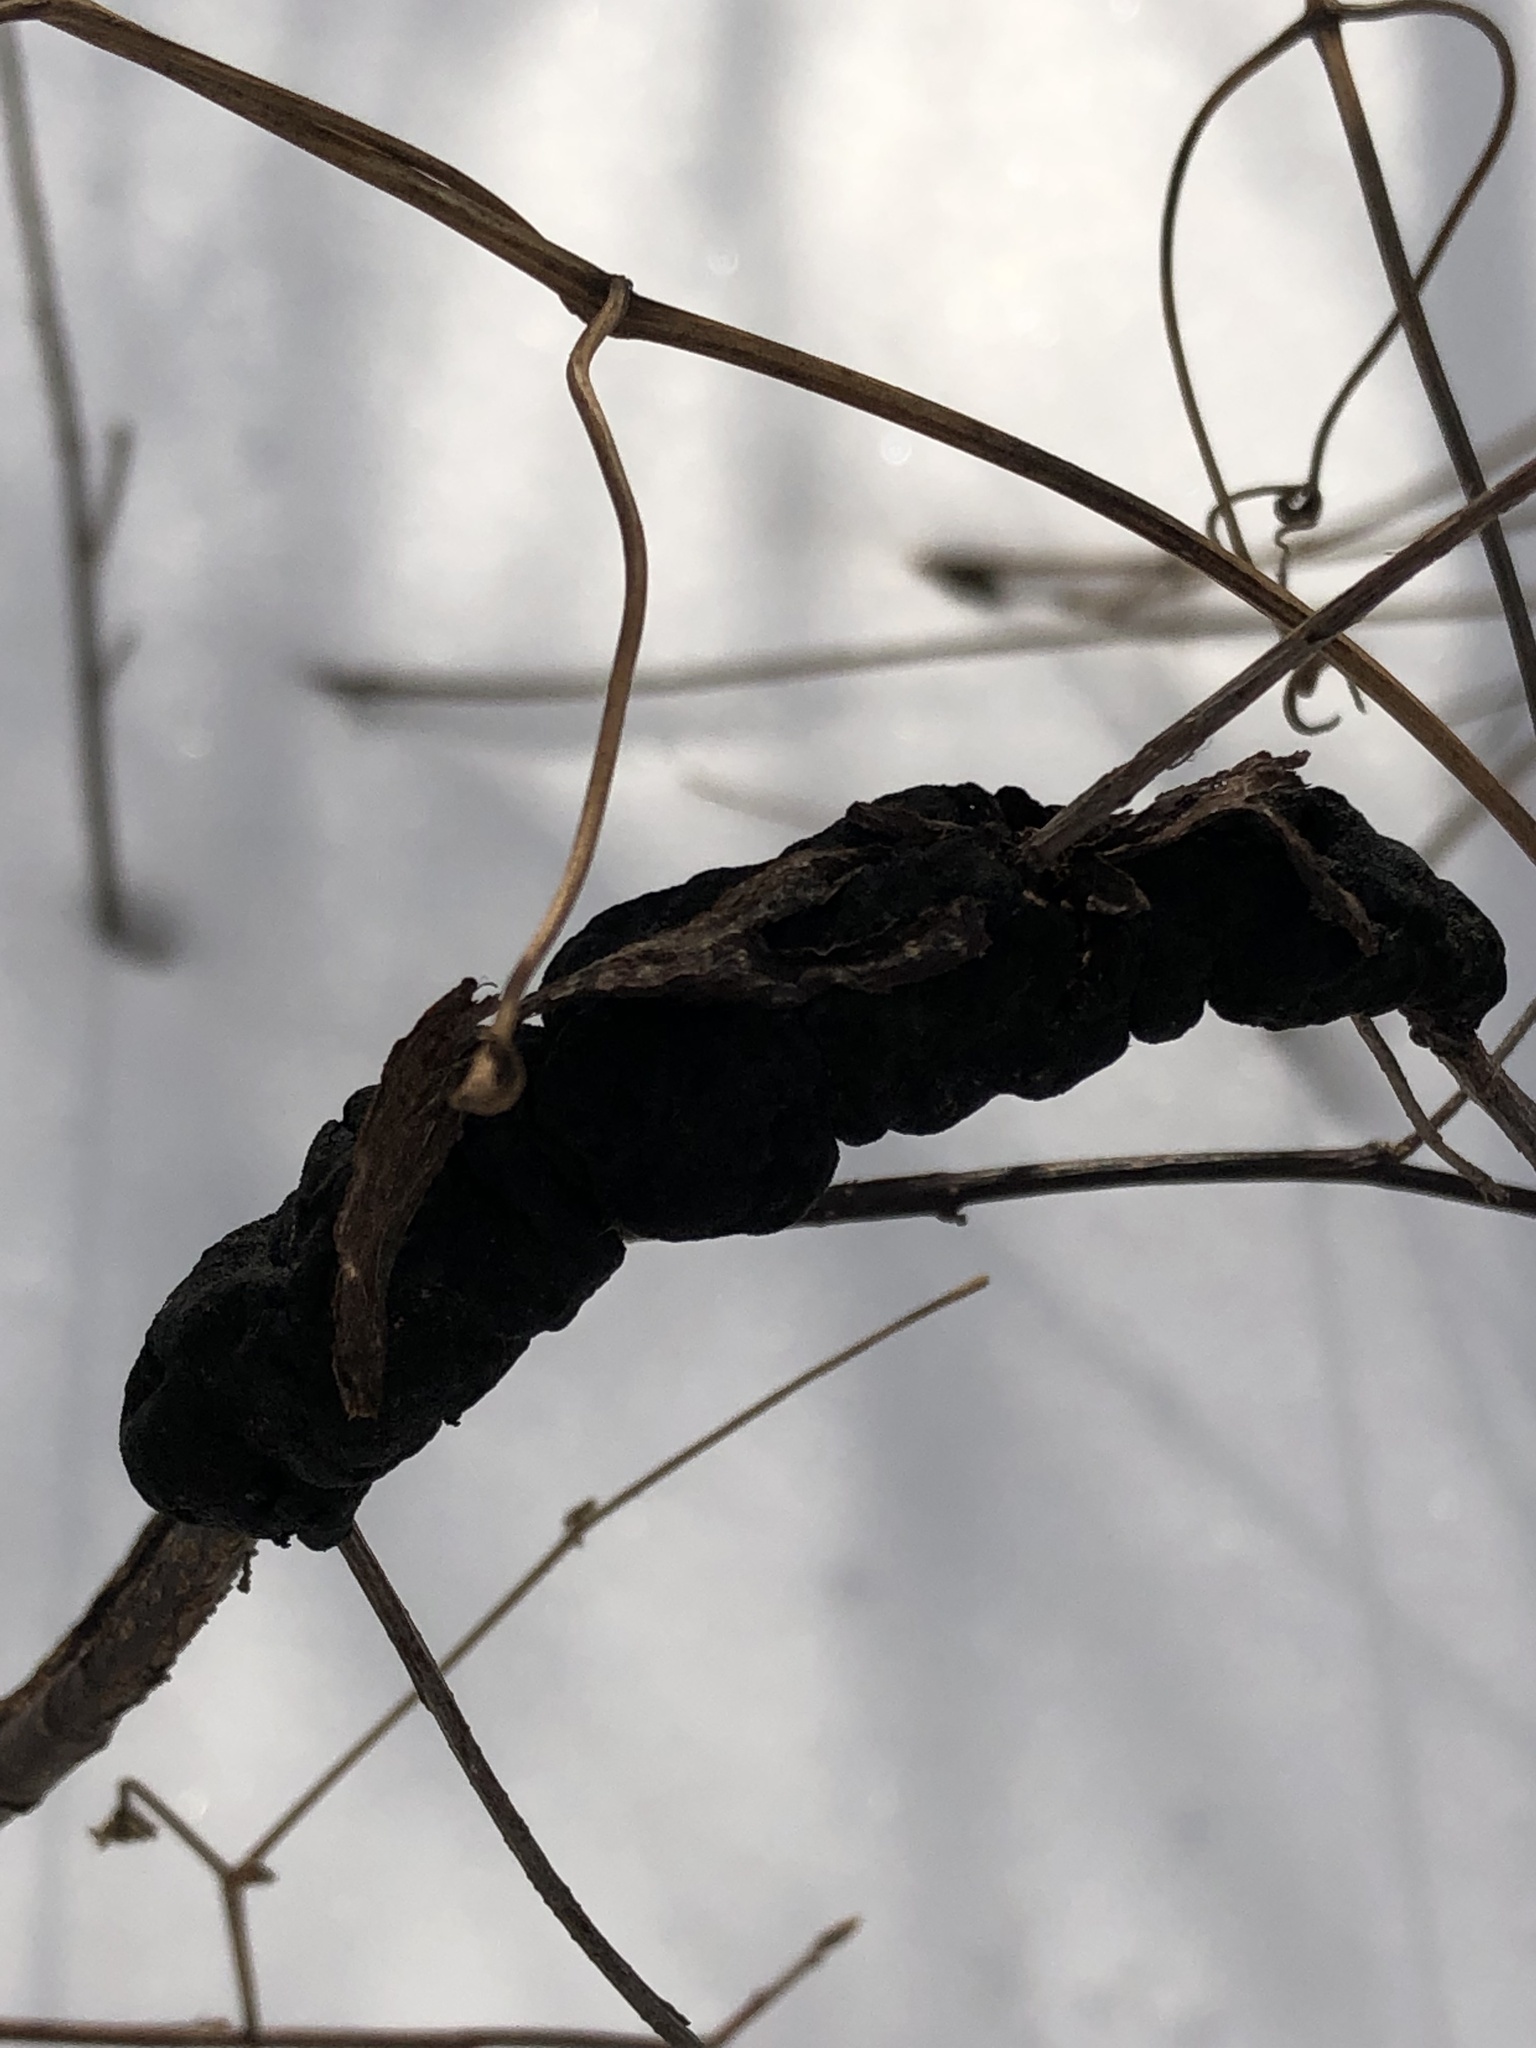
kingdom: Fungi
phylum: Ascomycota
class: Dothideomycetes
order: Venturiales
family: Venturiaceae
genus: Apiosporina
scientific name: Apiosporina morbosa
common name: Black knot
